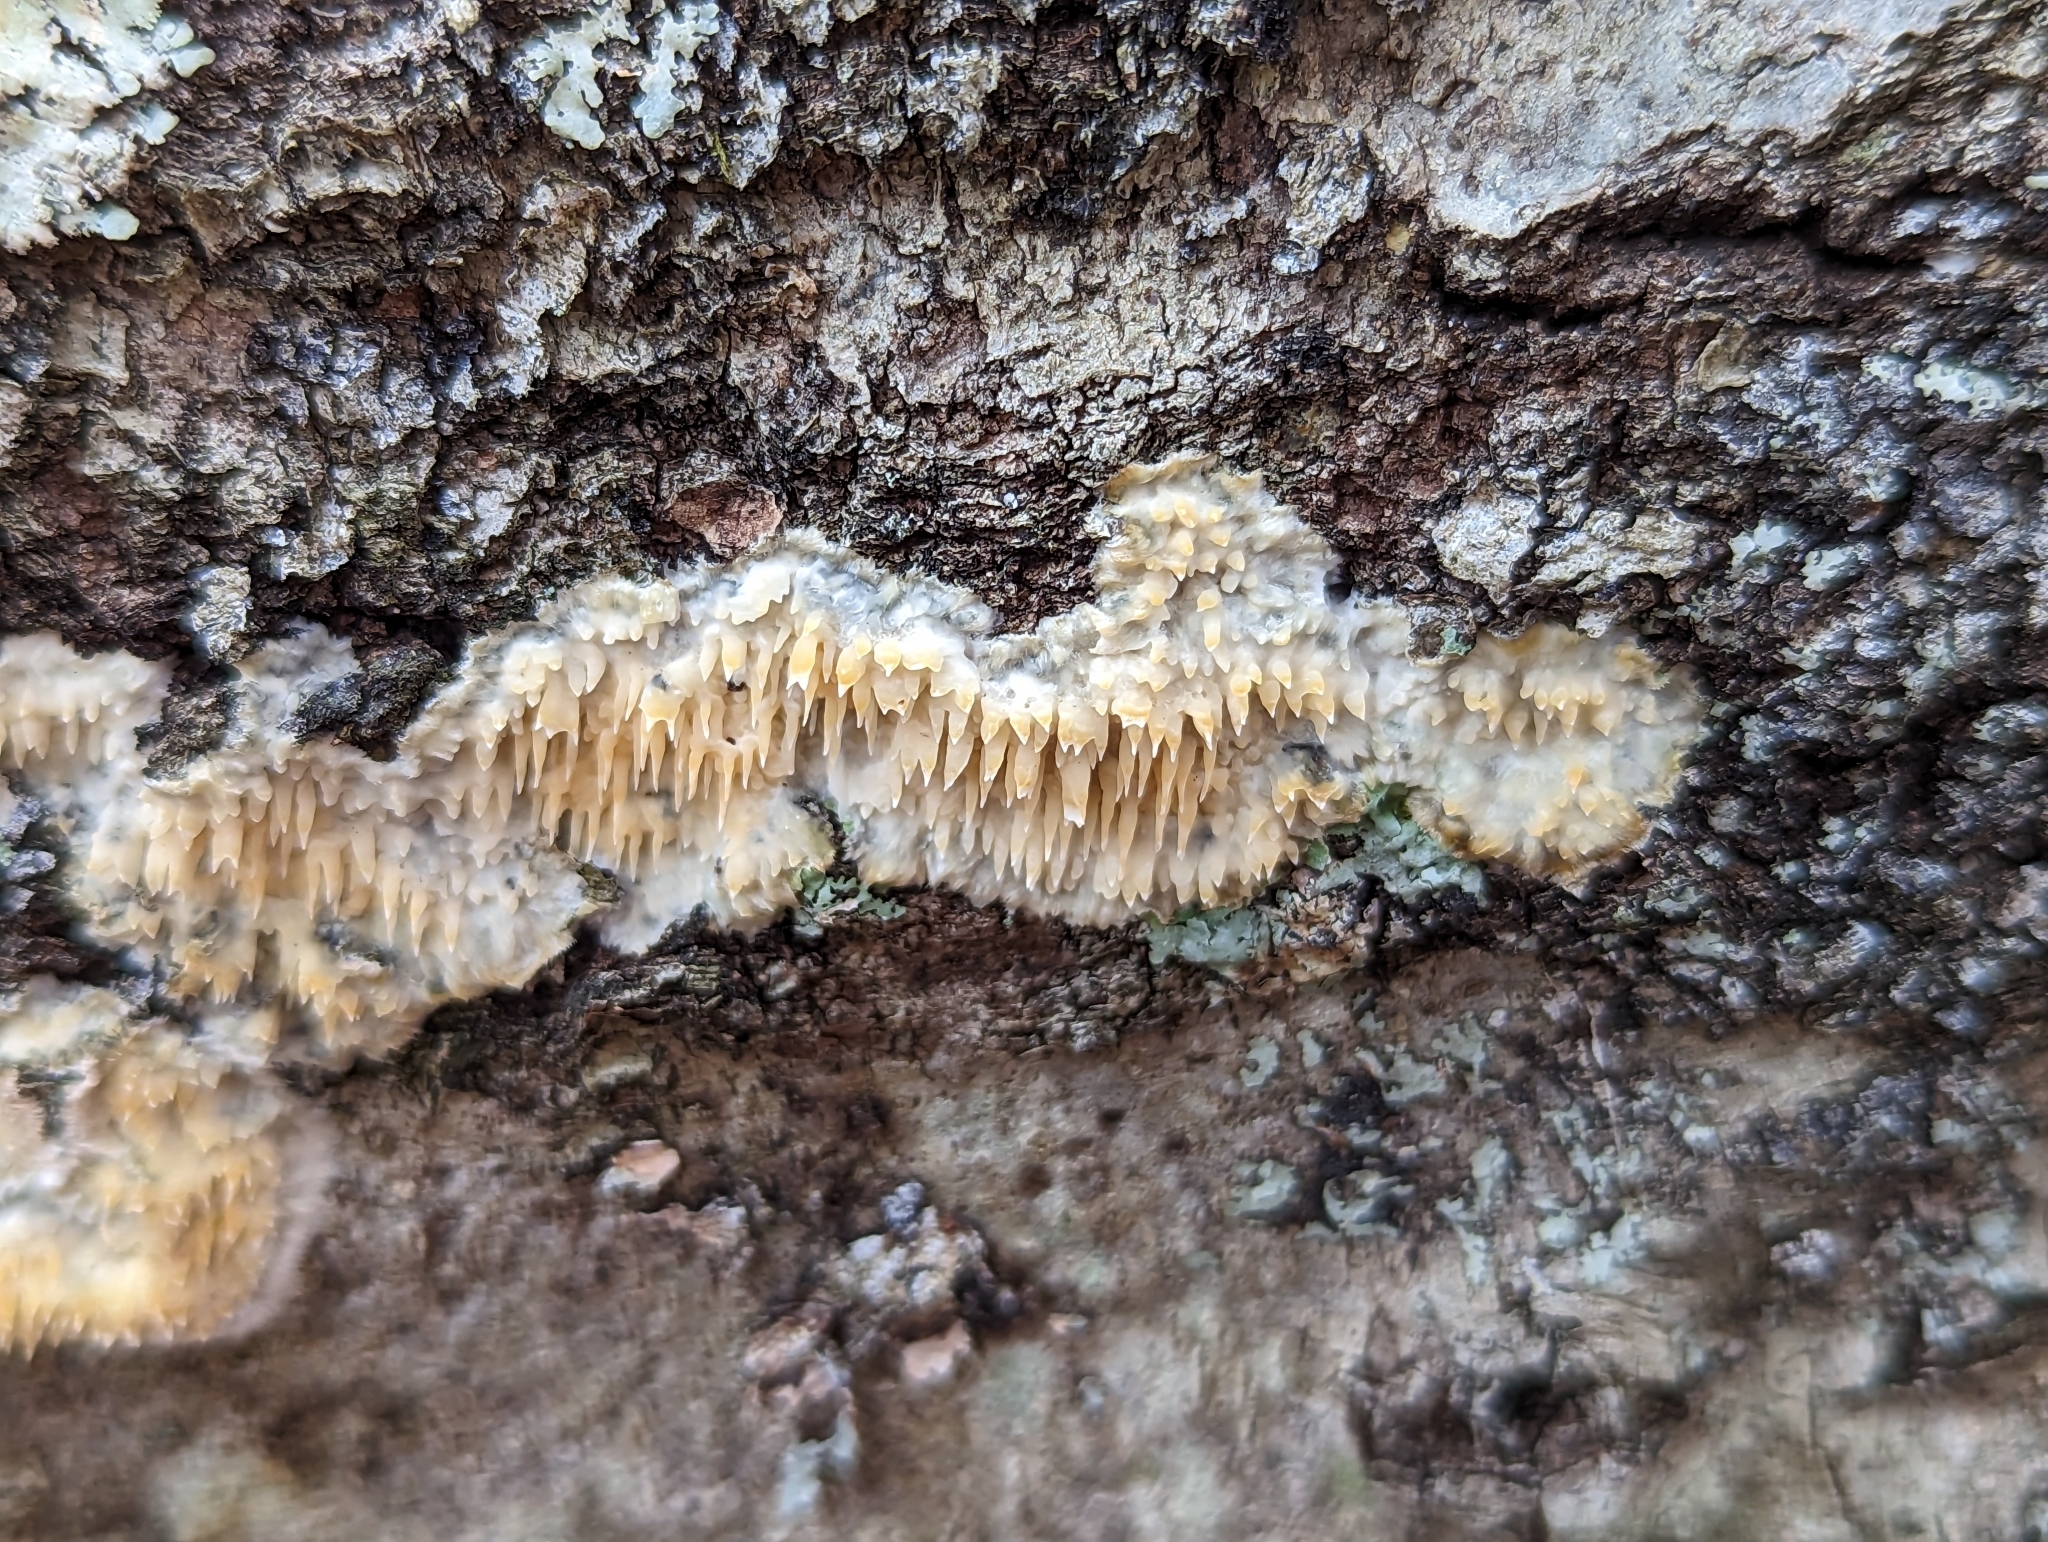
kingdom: Fungi
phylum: Basidiomycota
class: Agaricomycetes
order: Agaricales
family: Radulomycetaceae
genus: Radulomyces
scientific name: Radulomyces copelandii
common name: Asian beauty
